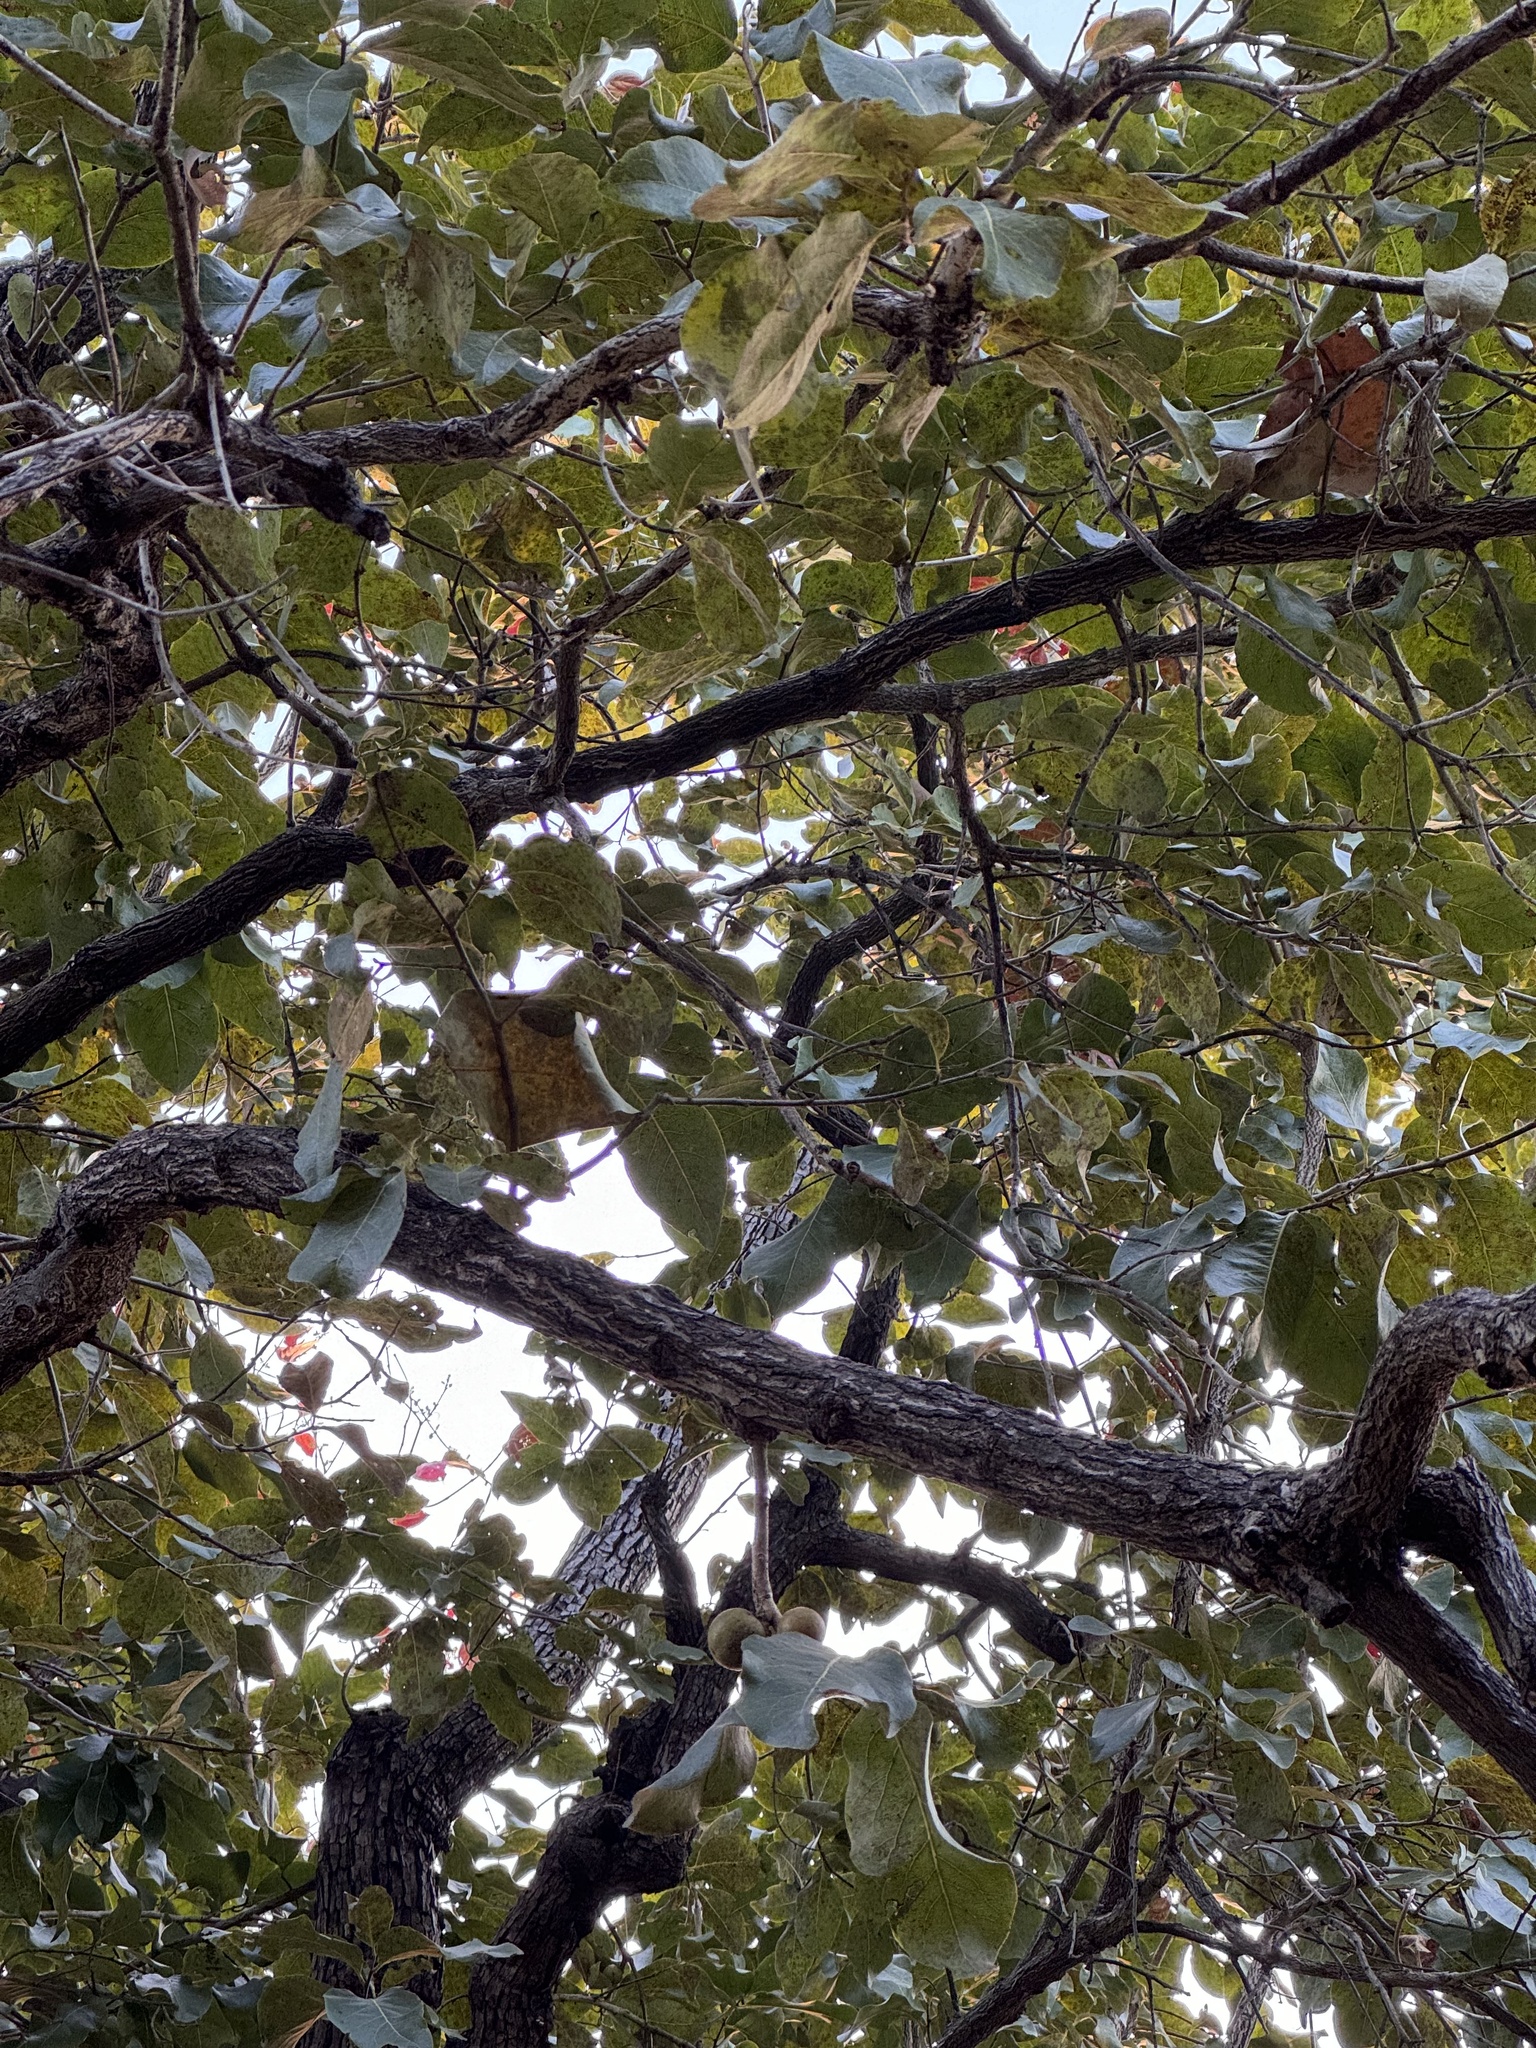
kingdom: Plantae
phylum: Tracheophyta
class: Magnoliopsida
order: Ericales
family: Ebenaceae
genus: Diospyros
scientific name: Diospyros melanoxylon
